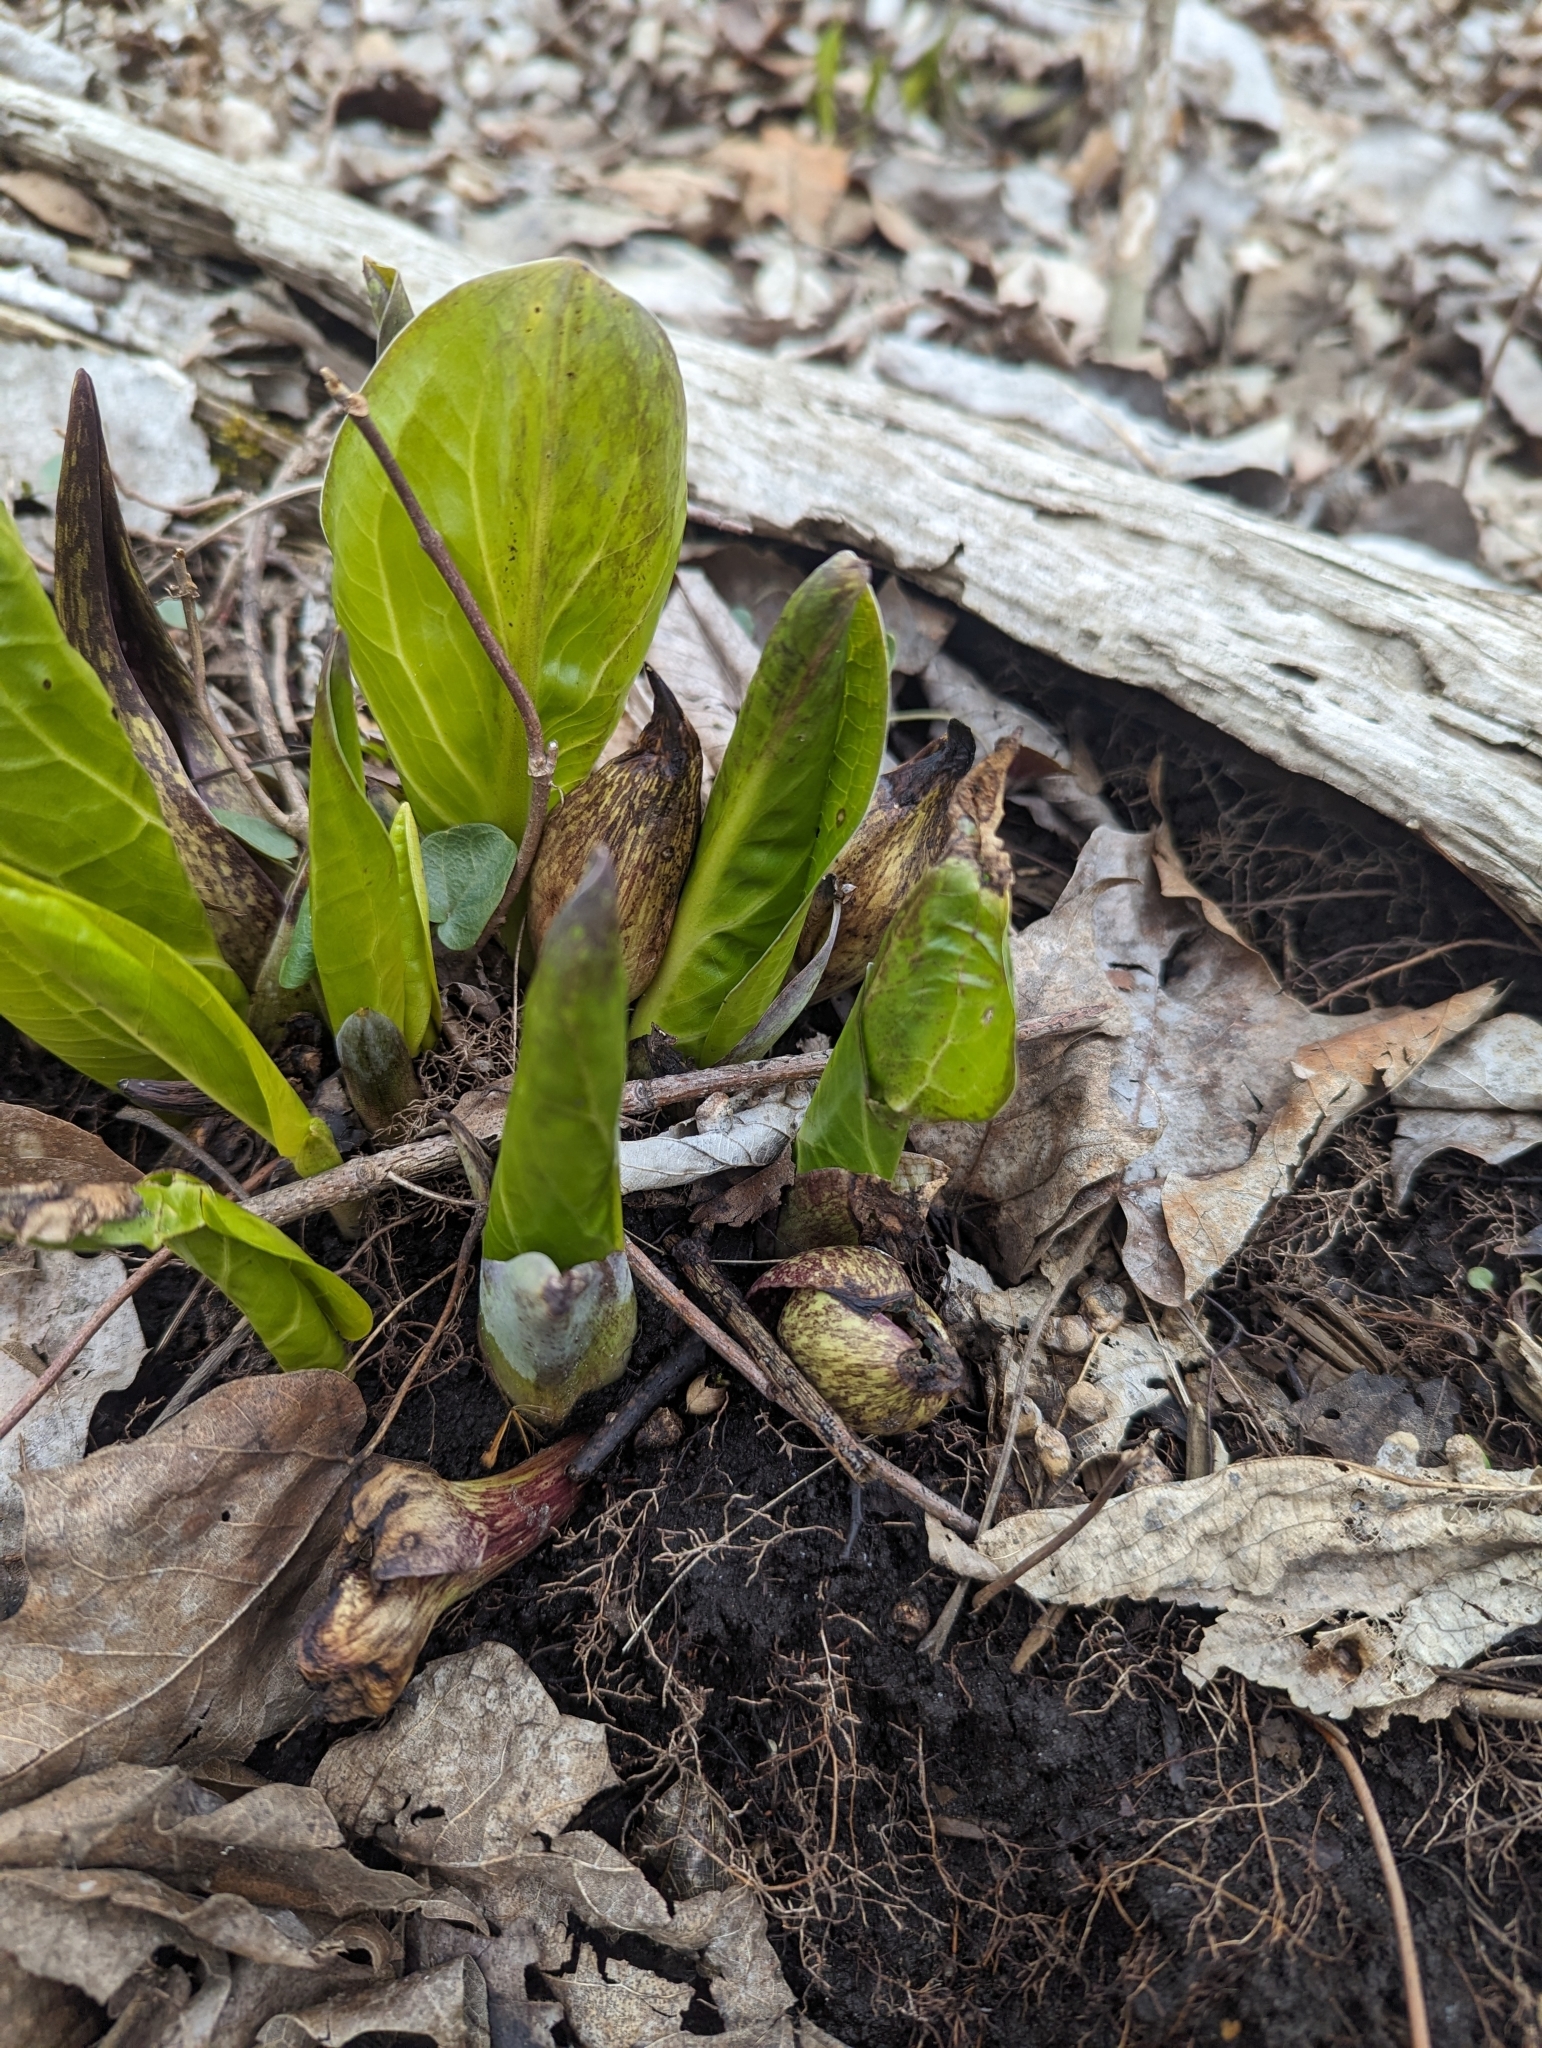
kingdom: Plantae
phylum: Tracheophyta
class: Liliopsida
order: Alismatales
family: Araceae
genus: Symplocarpus
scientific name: Symplocarpus foetidus
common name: Eastern skunk cabbage
